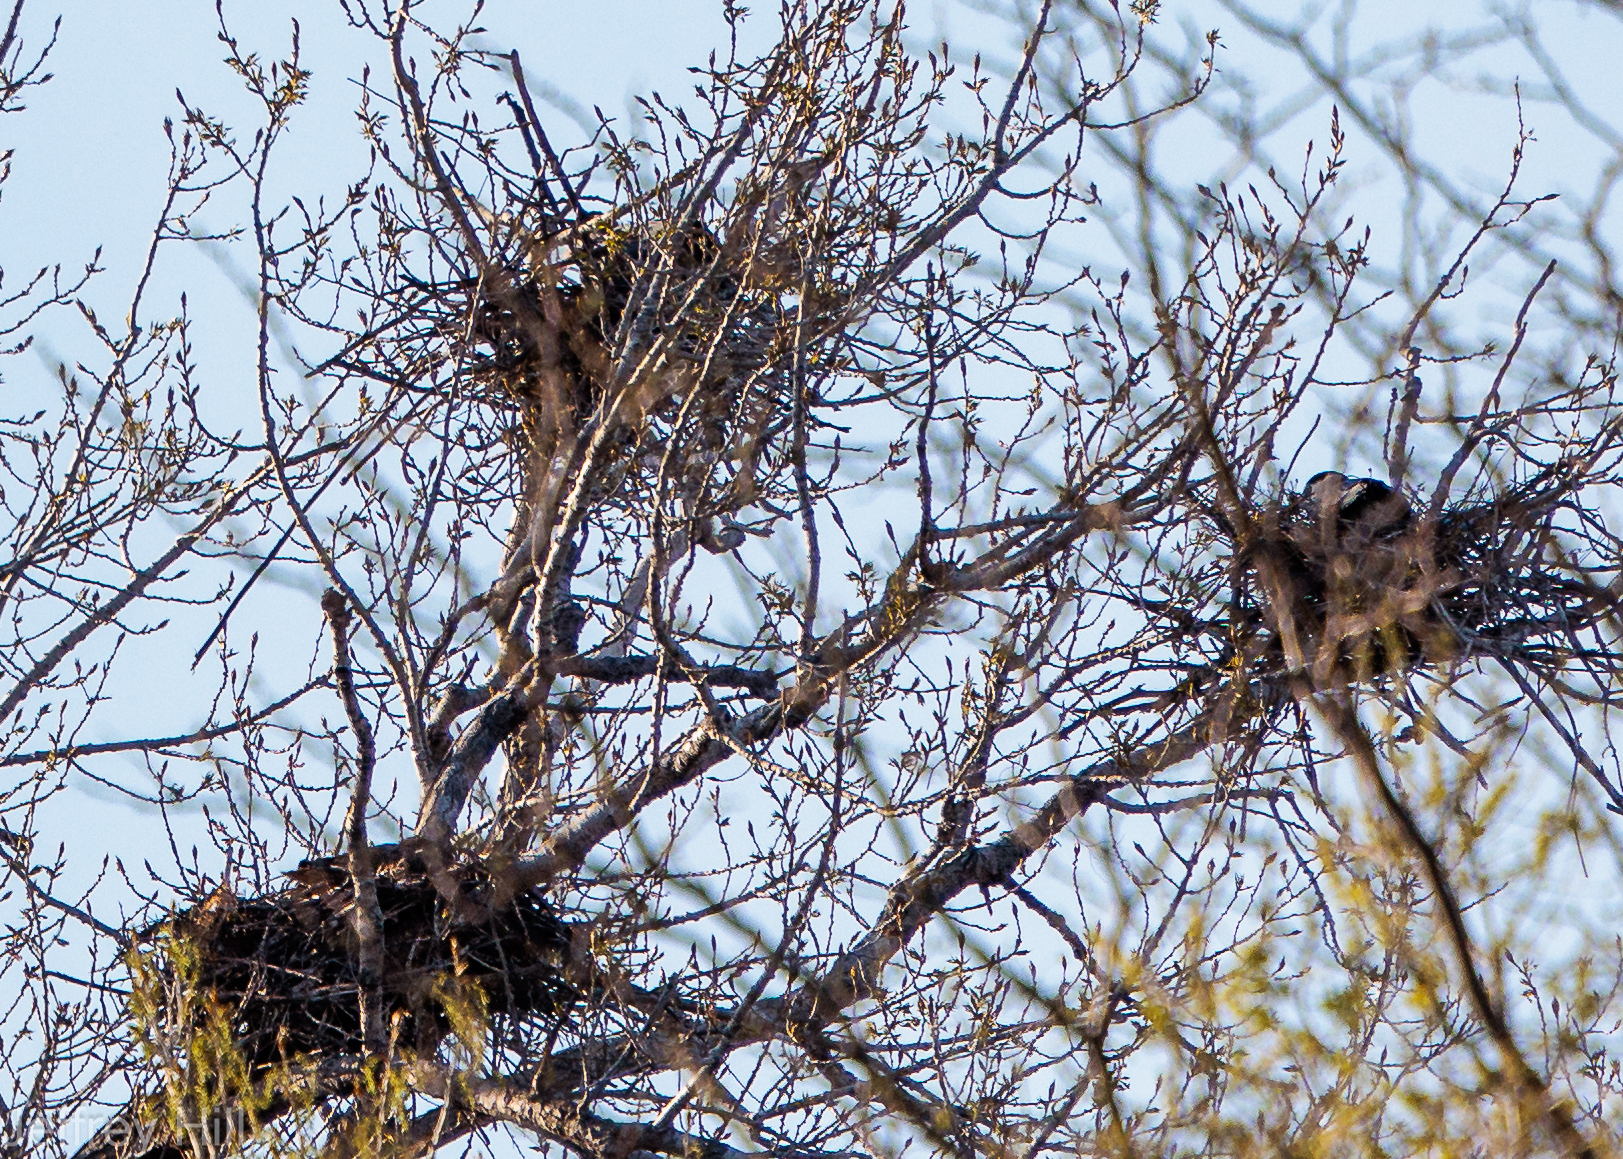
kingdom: Animalia
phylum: Chordata
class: Aves
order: Pelecaniformes
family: Ardeidae
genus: Ardea
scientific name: Ardea herodias
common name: Great blue heron
